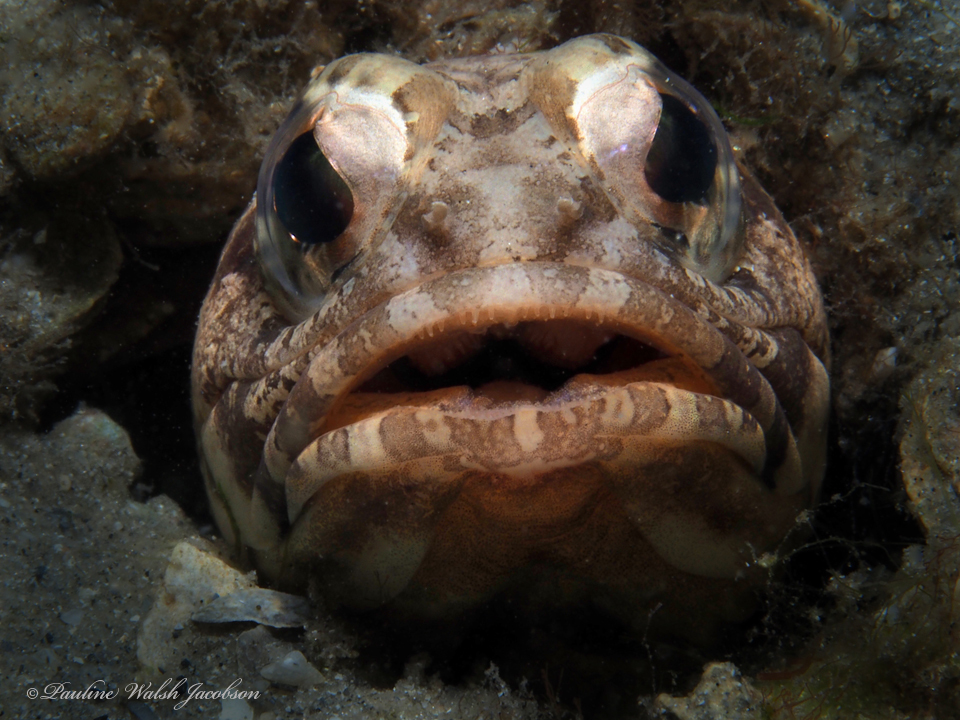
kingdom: Animalia
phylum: Chordata
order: Perciformes
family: Opistognathidae
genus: Opistognathus
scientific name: Opistognathus macrognathus
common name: Banded jawfish
